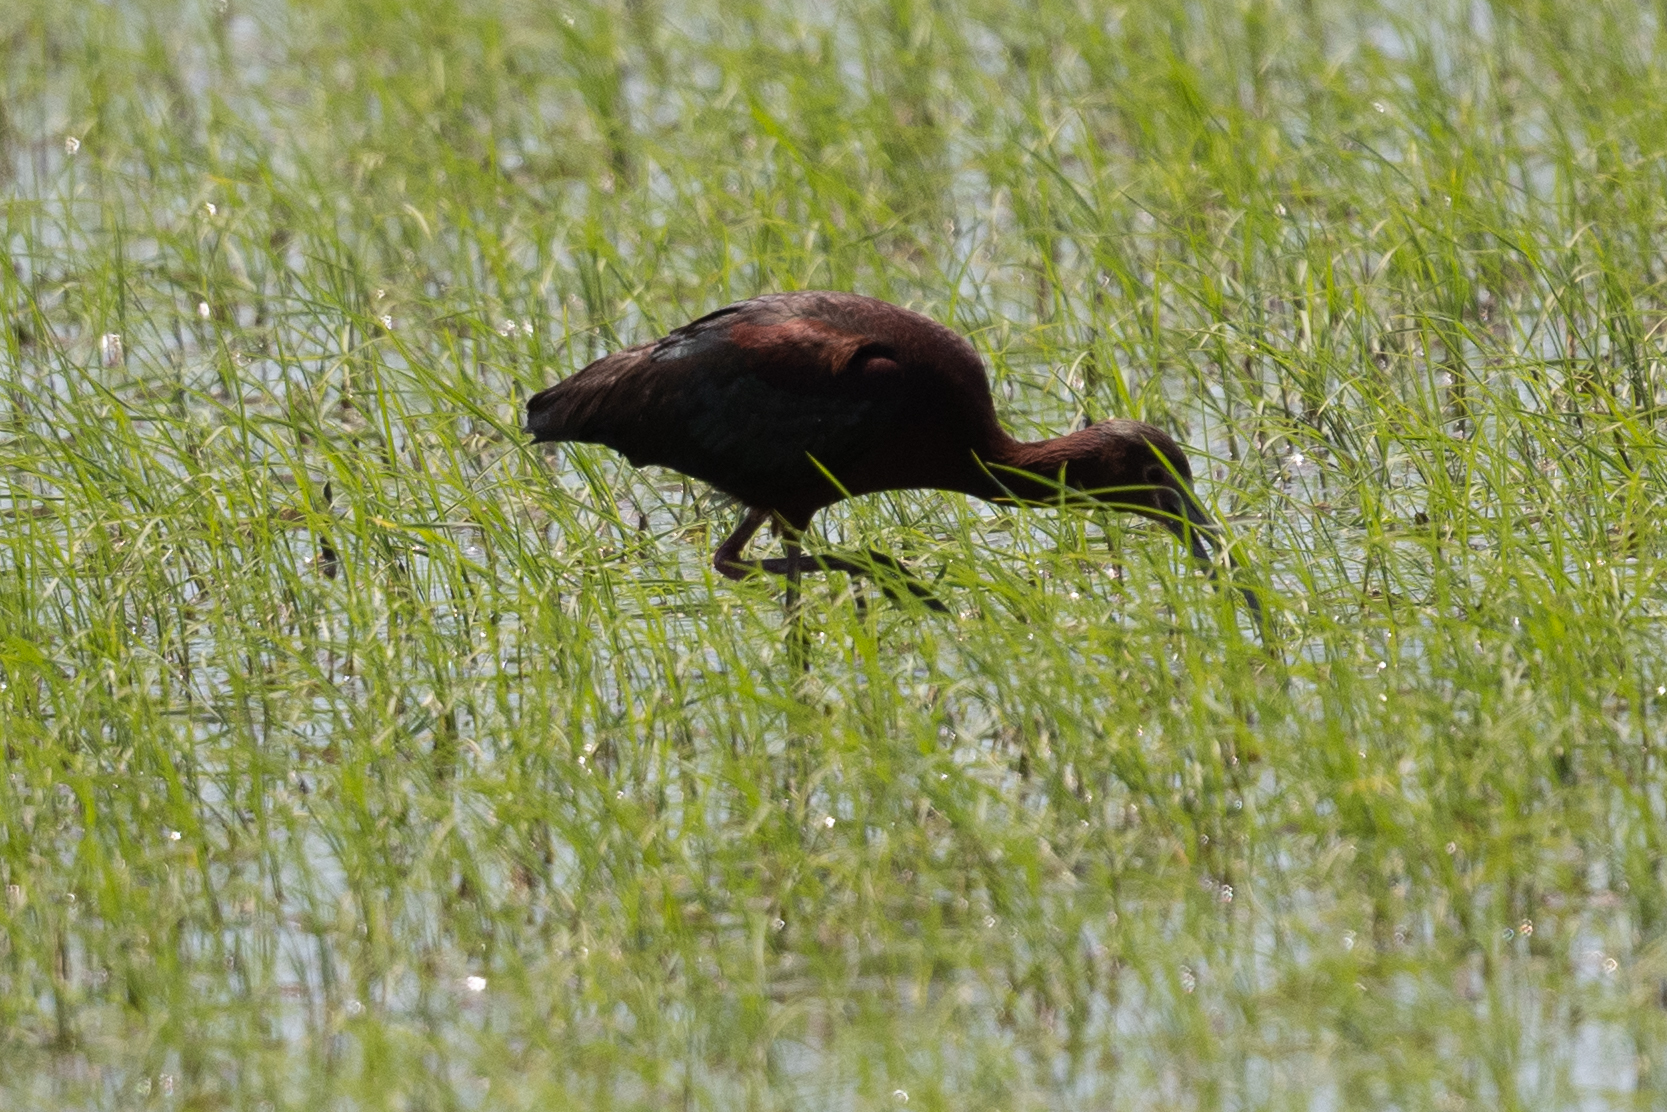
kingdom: Animalia
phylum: Chordata
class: Aves
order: Pelecaniformes
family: Threskiornithidae
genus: Plegadis
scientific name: Plegadis chihi
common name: White-faced ibis
